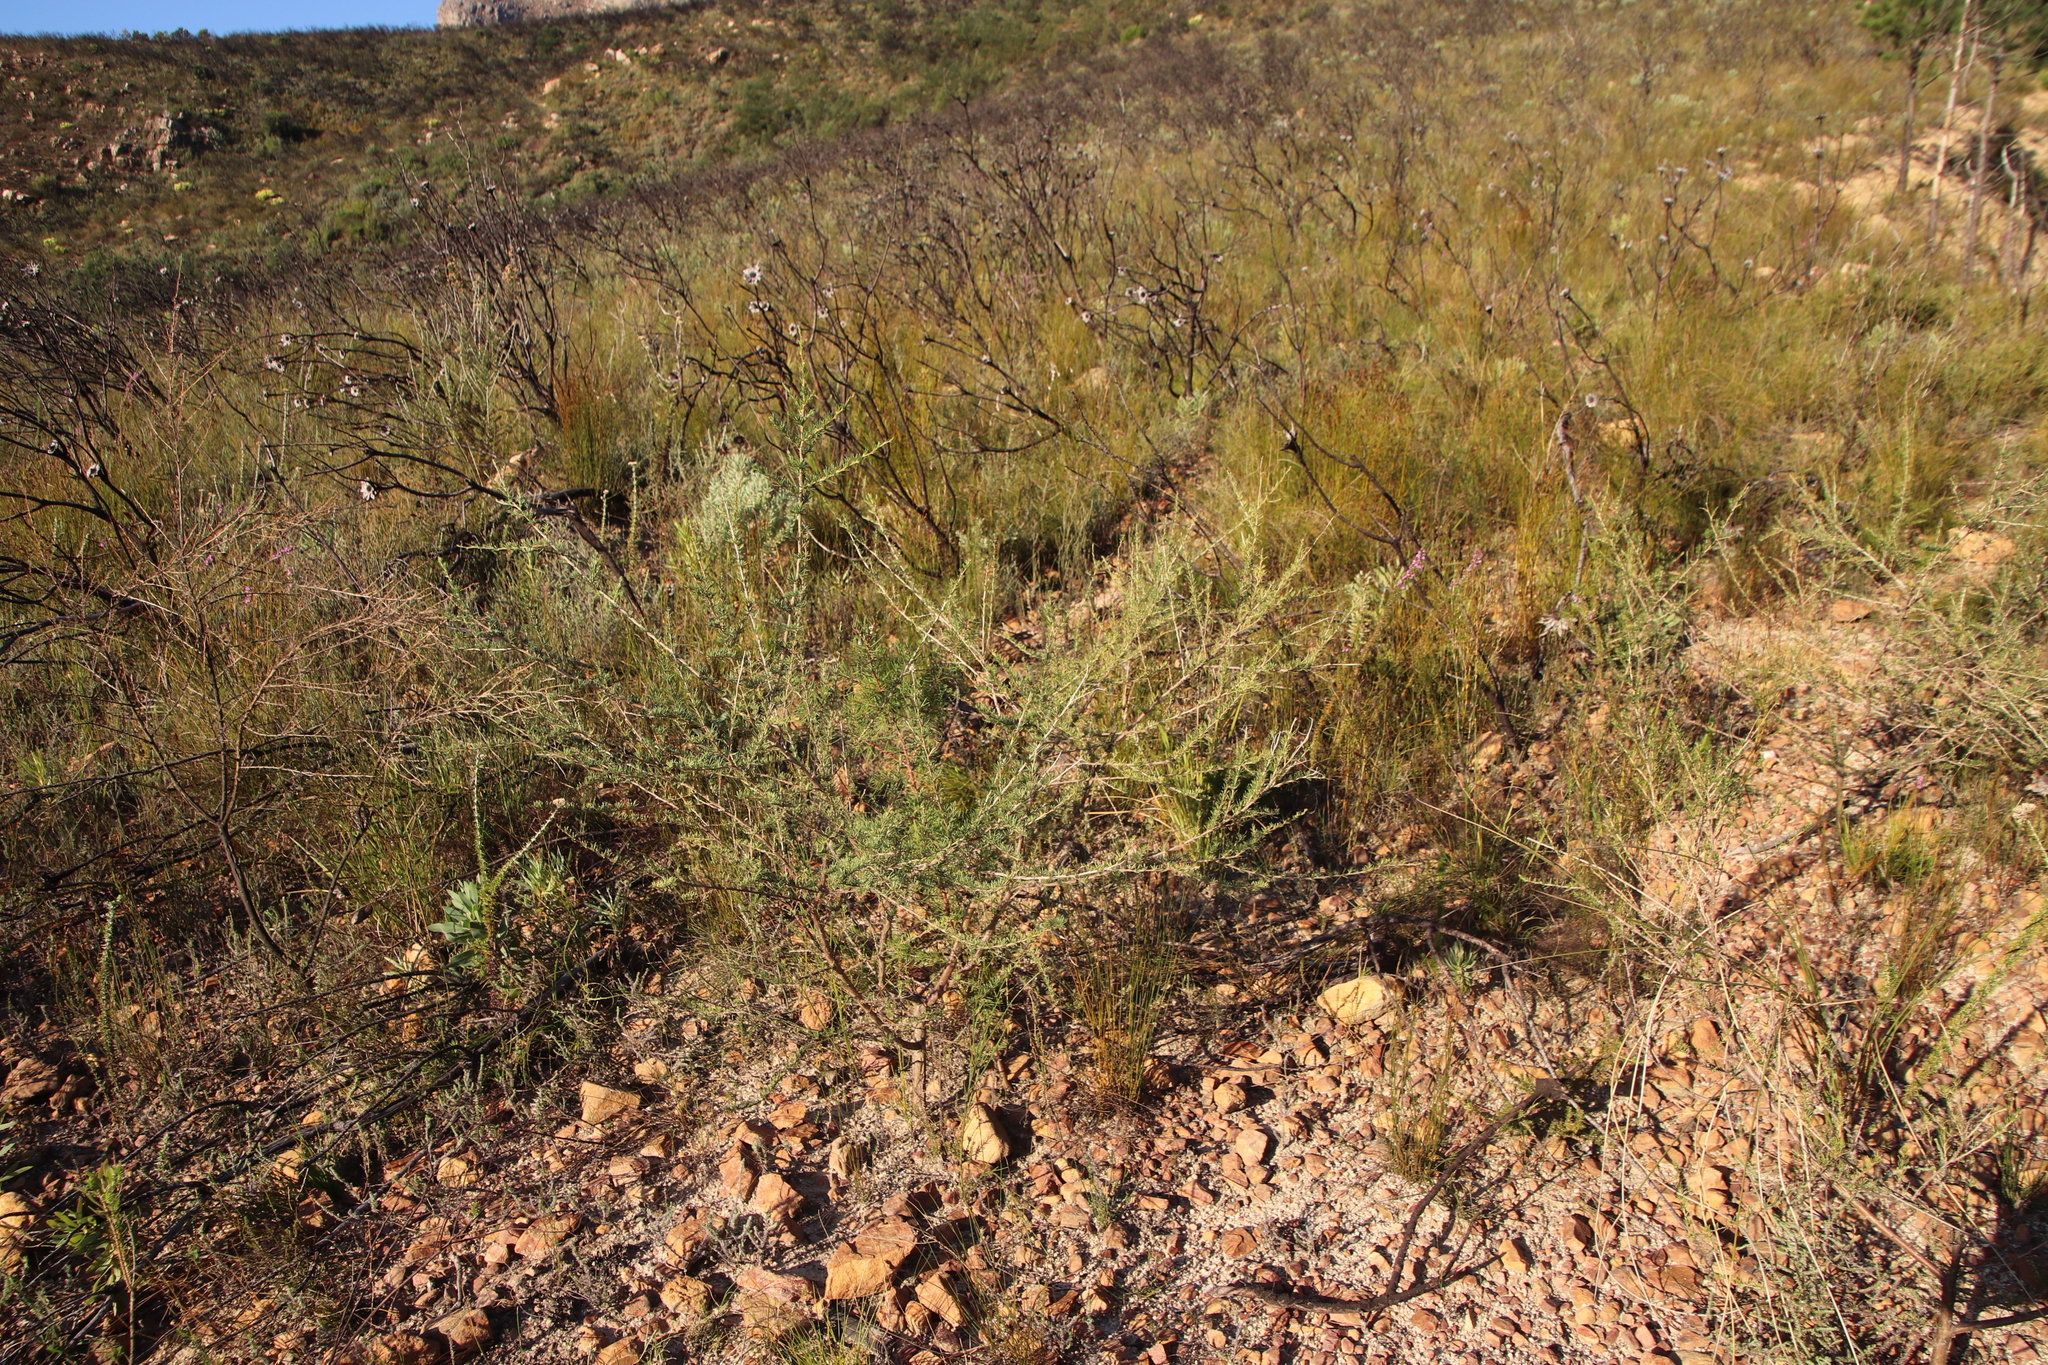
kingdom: Plantae
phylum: Tracheophyta
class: Magnoliopsida
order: Fabales
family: Fabaceae
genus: Aspalathus
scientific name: Aspalathus uniflora
